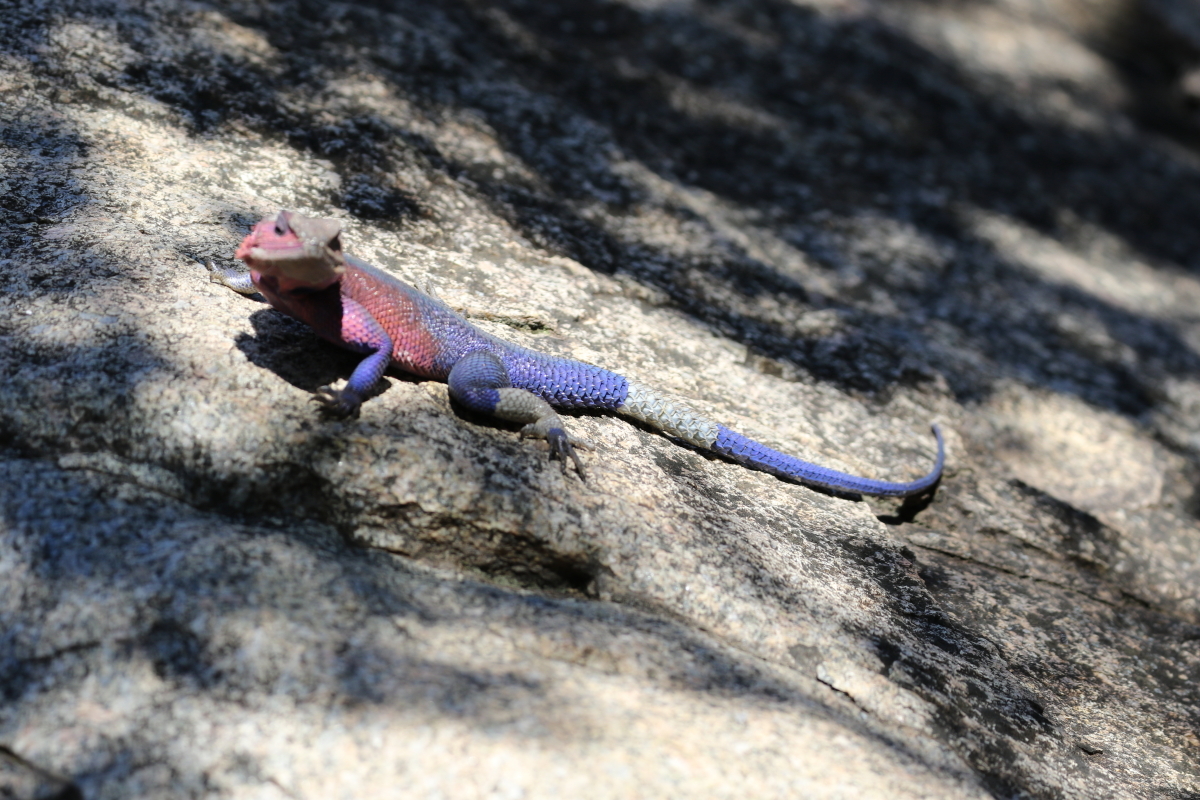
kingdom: Animalia
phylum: Chordata
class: Squamata
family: Agamidae
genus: Agama
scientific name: Agama mwanzae
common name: Mwanza flat-headed agama
